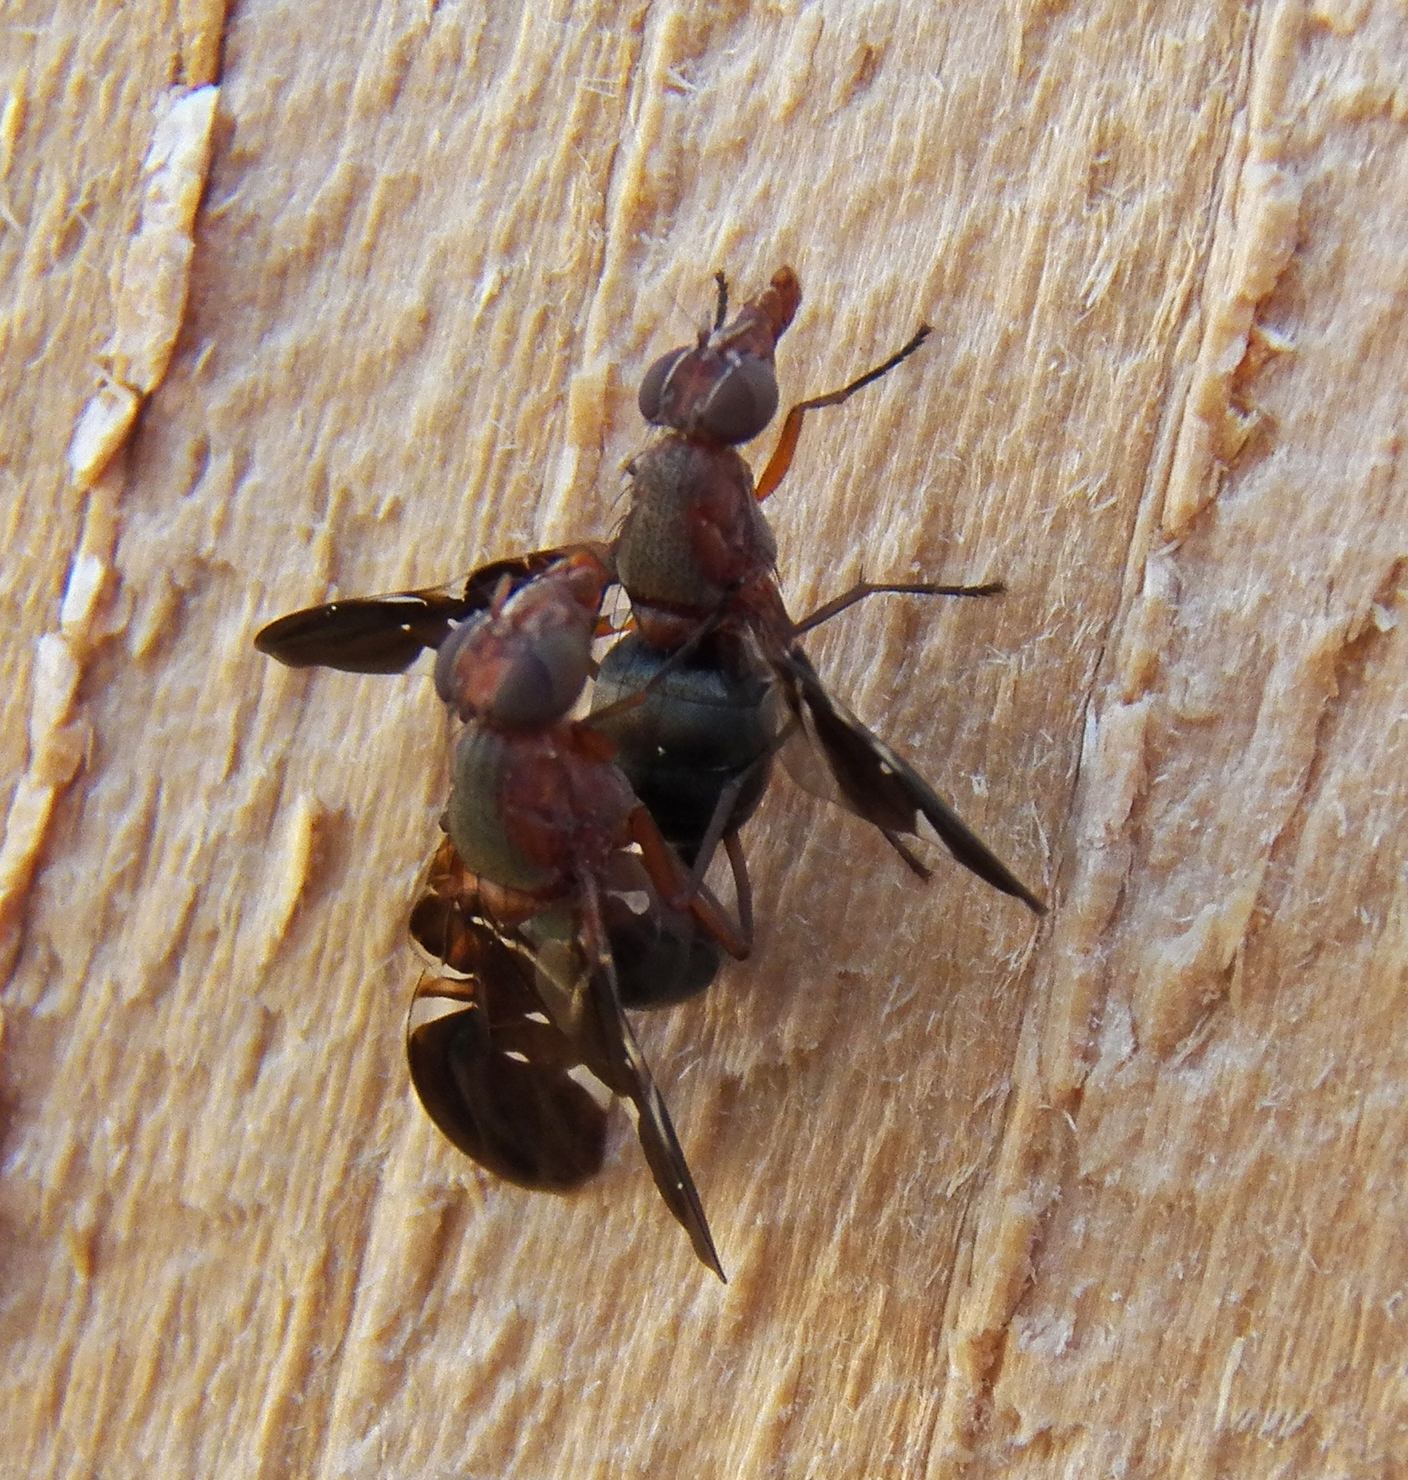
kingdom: Animalia
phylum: Arthropoda
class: Insecta
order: Diptera
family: Ulidiidae
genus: Delphinia
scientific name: Delphinia picta
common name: Common picture-winged fly
